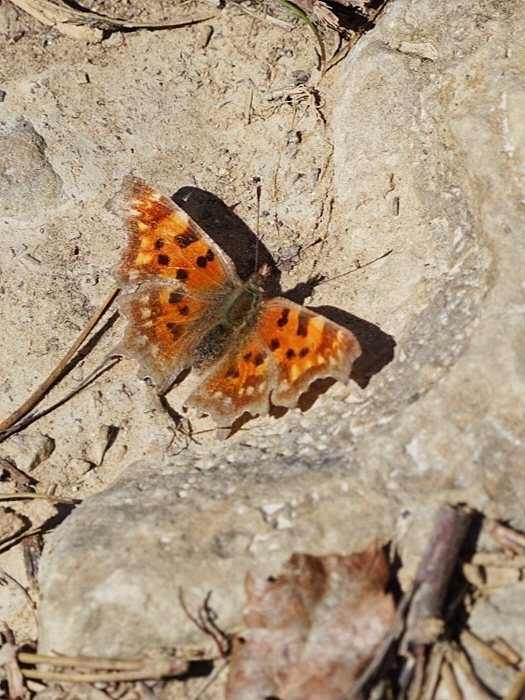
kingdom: Animalia
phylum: Arthropoda
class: Insecta
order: Lepidoptera
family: Nymphalidae
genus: Polygonia
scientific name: Polygonia c-album
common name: Comma
